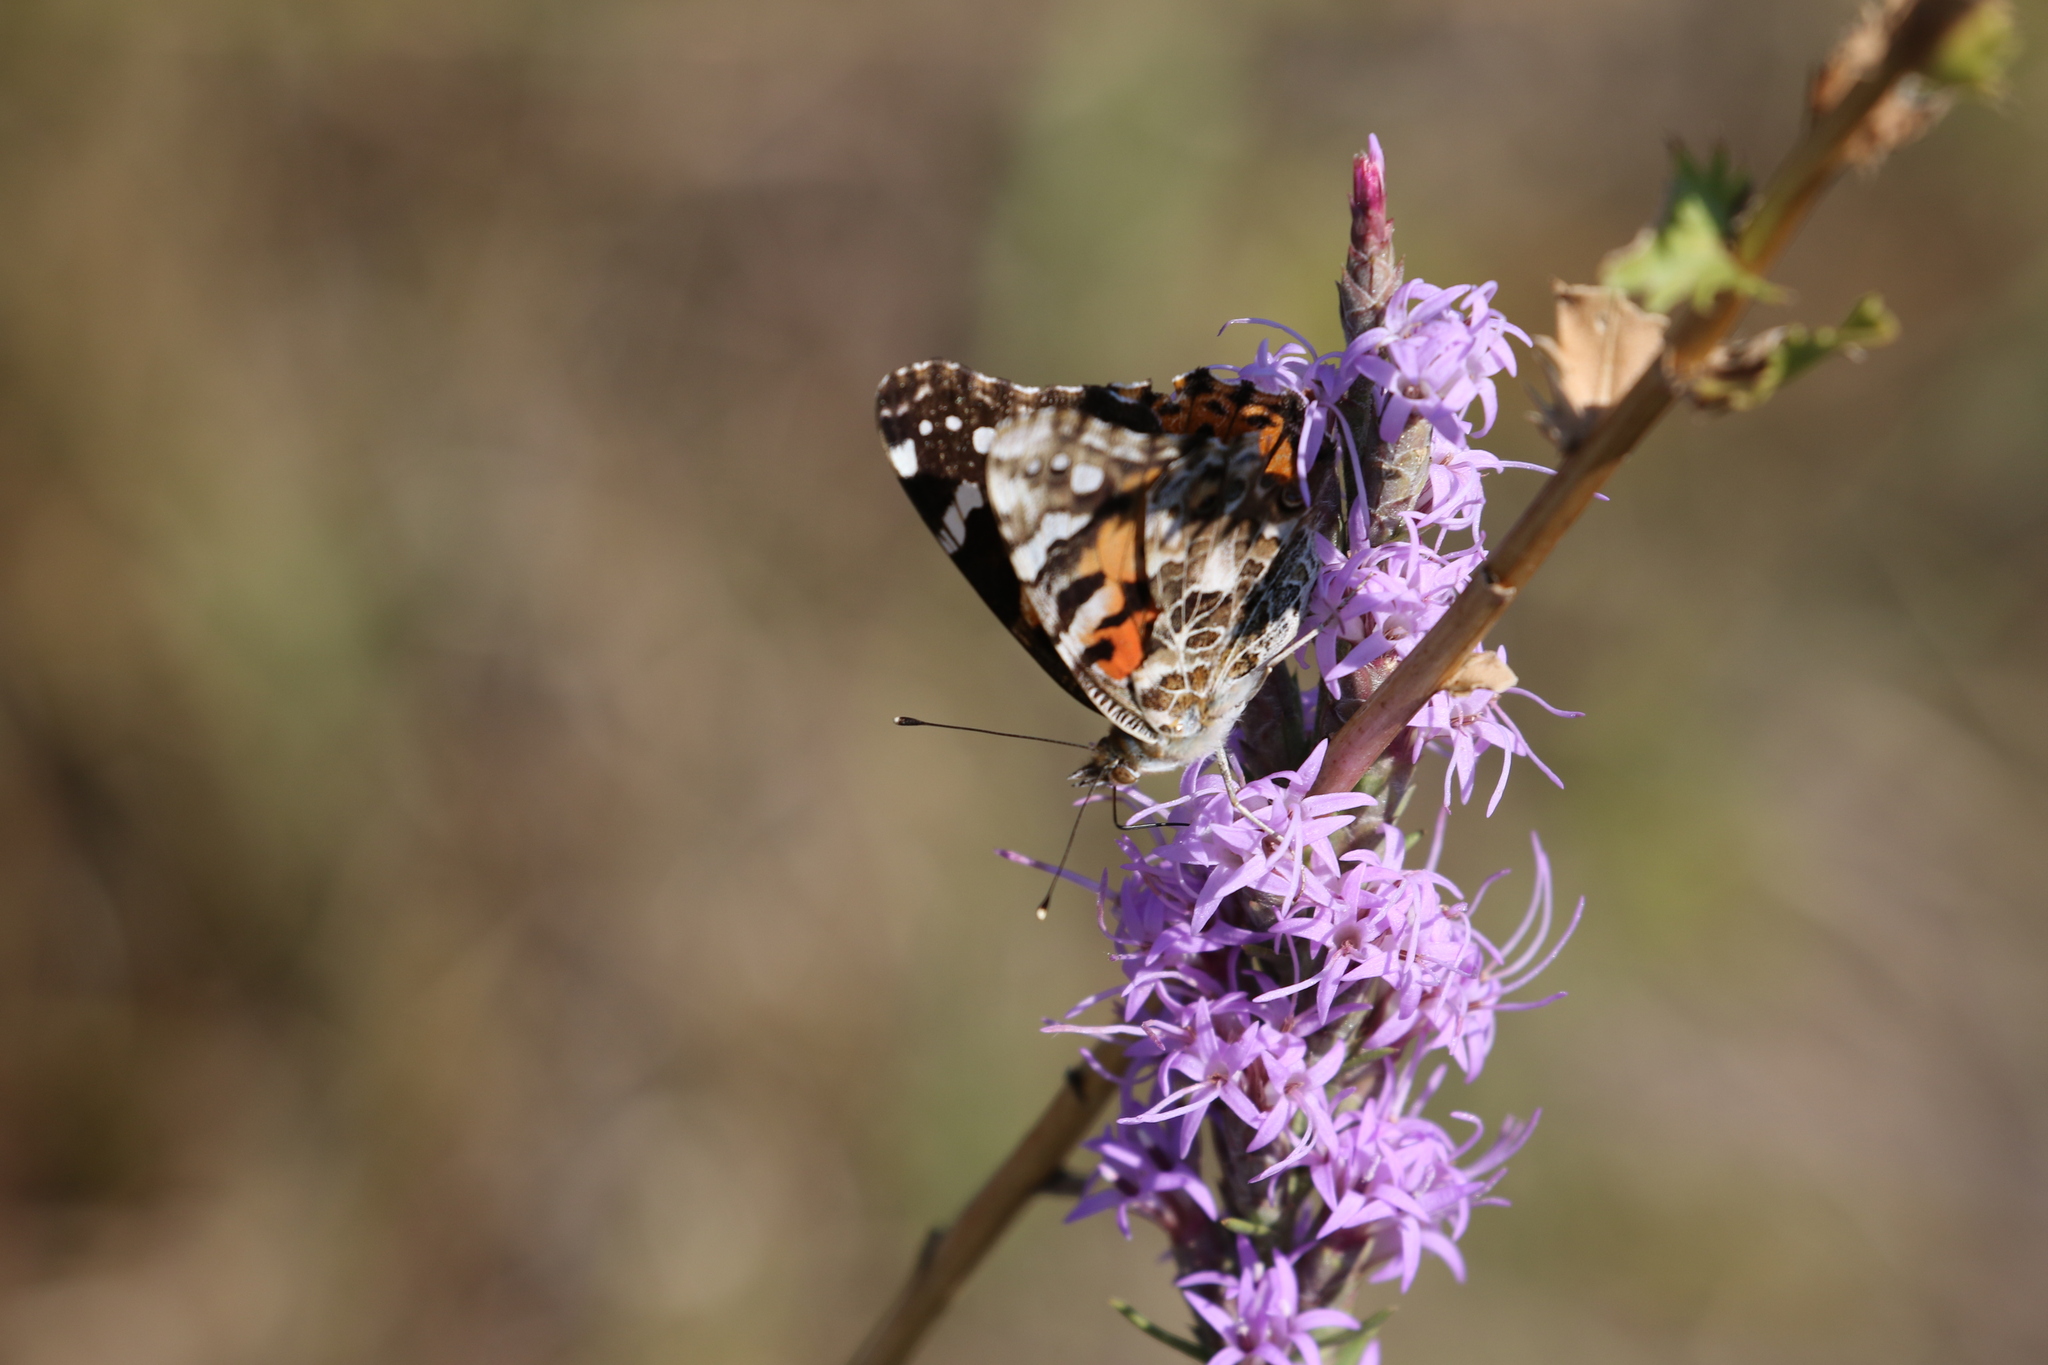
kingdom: Animalia
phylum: Arthropoda
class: Insecta
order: Lepidoptera
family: Nymphalidae
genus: Vanessa
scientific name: Vanessa cardui
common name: Painted lady
